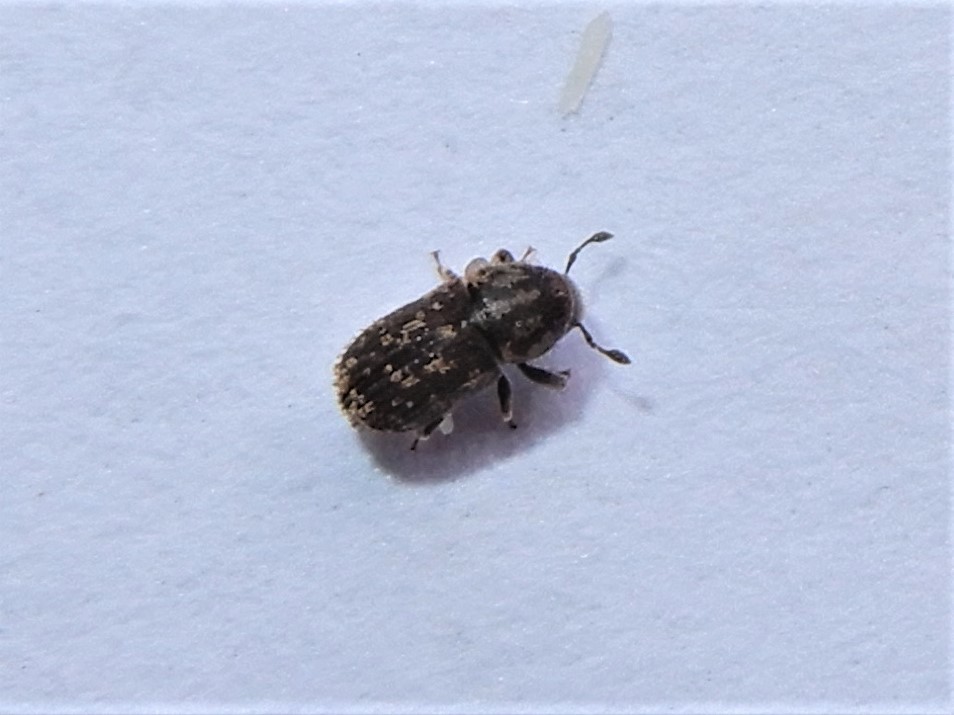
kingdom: Animalia
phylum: Arthropoda
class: Insecta
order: Coleoptera
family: Curculionidae
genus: Chaetoptelius
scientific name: Chaetoptelius mundulus
